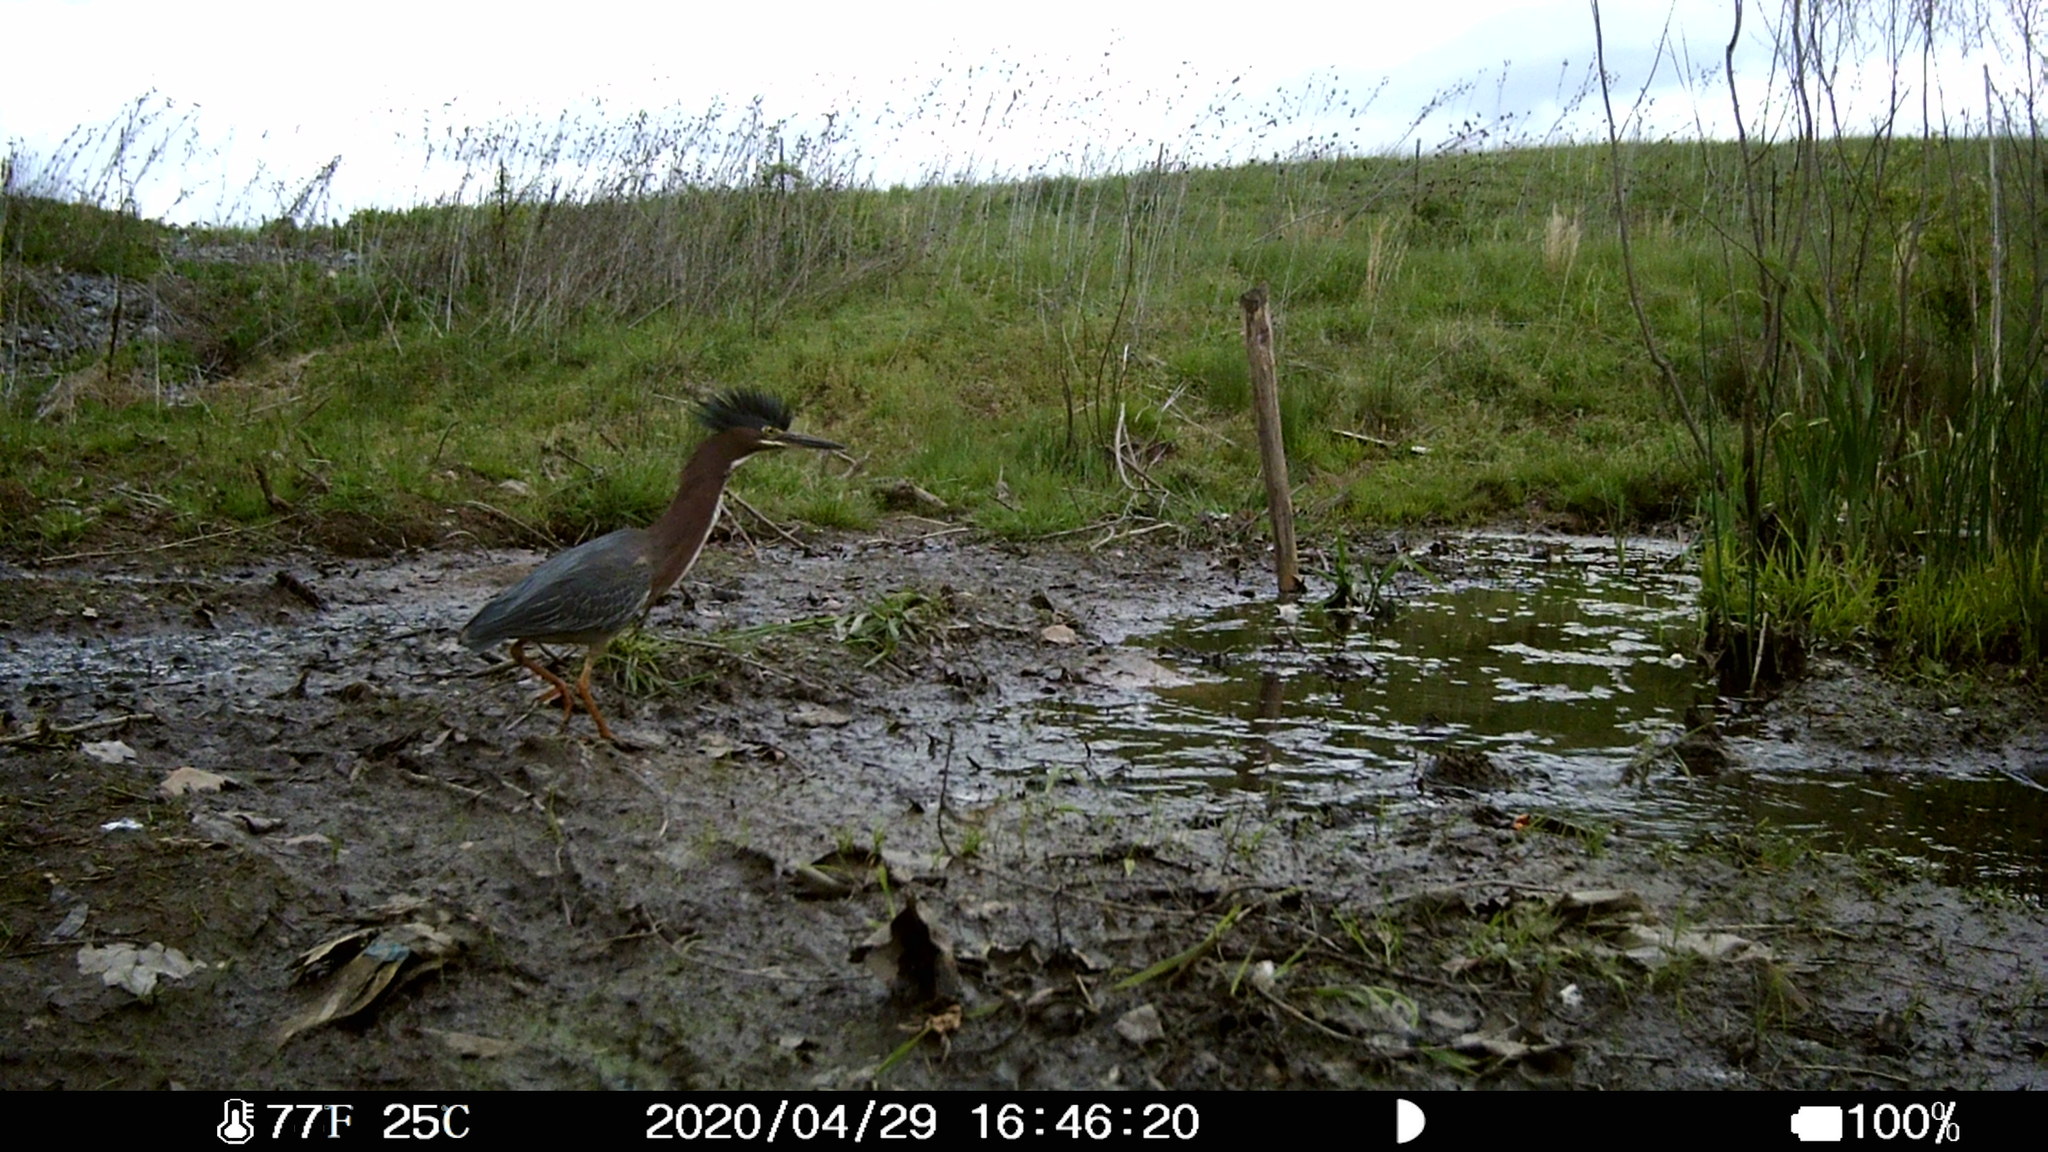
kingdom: Animalia
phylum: Chordata
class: Aves
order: Pelecaniformes
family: Ardeidae
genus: Butorides
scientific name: Butorides virescens
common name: Green heron
